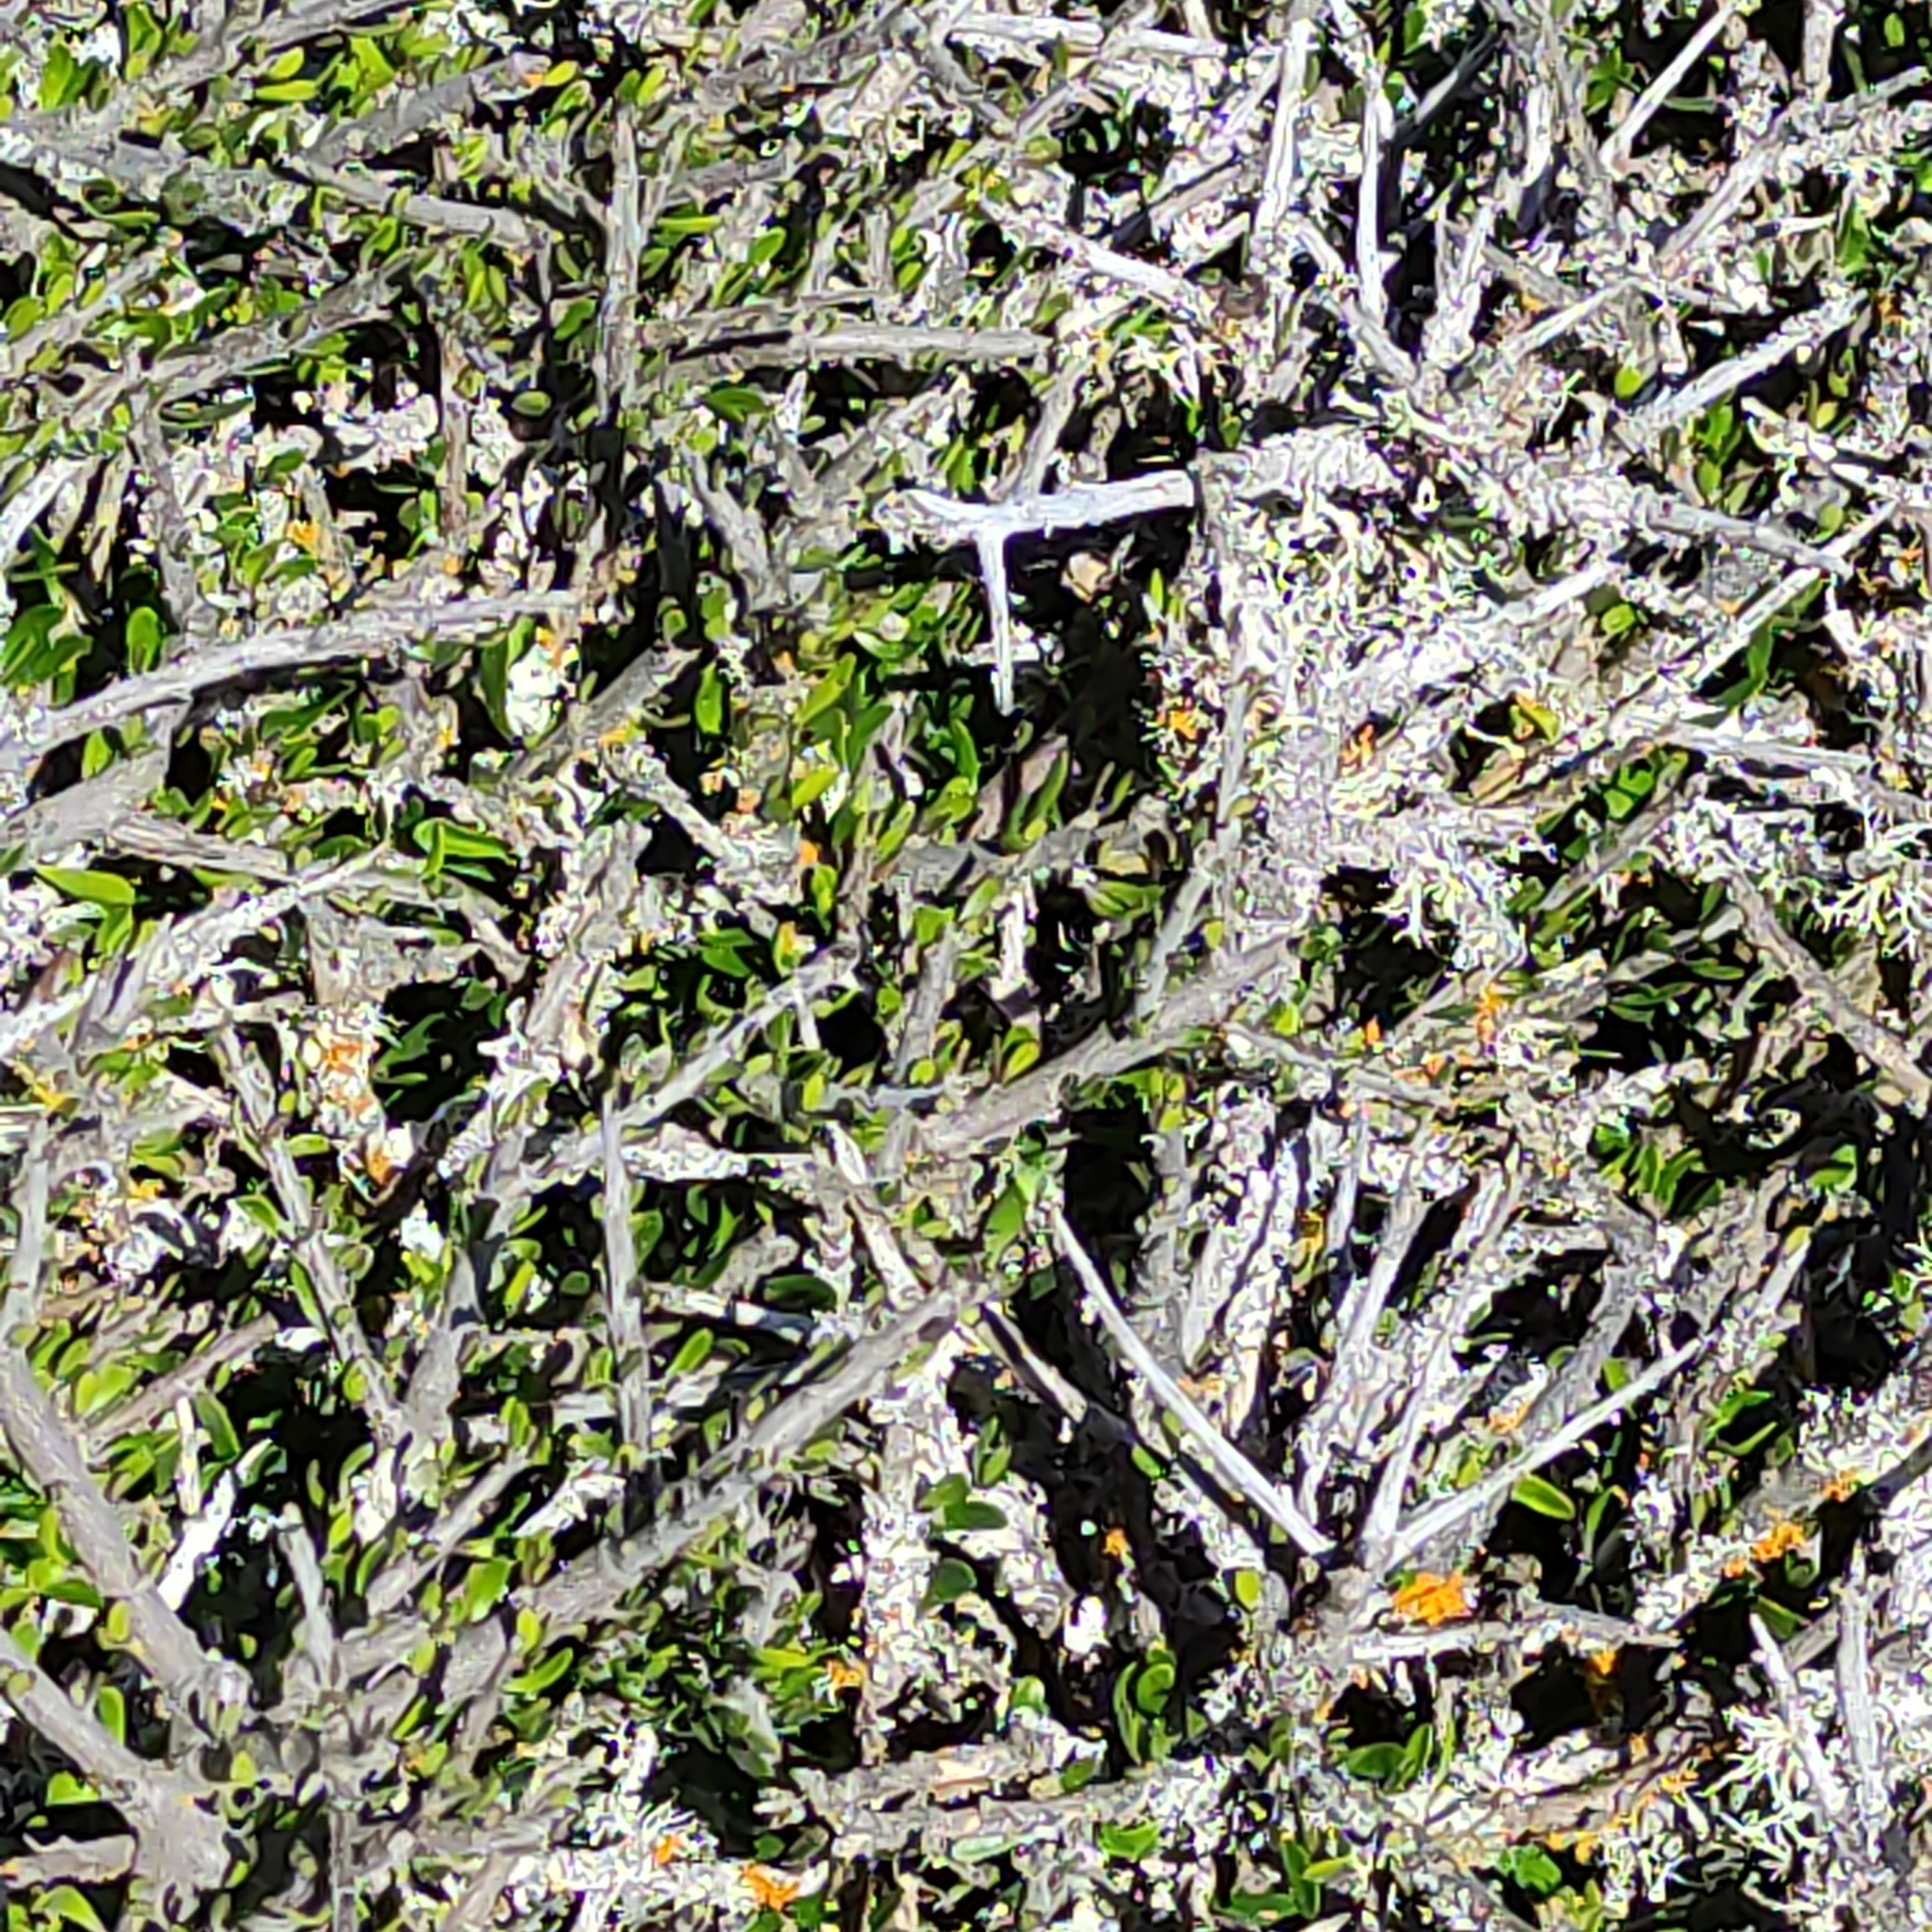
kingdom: Plantae
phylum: Tracheophyta
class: Magnoliopsida
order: Malpighiales
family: Violaceae
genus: Melicytus
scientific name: Melicytus alpinus
